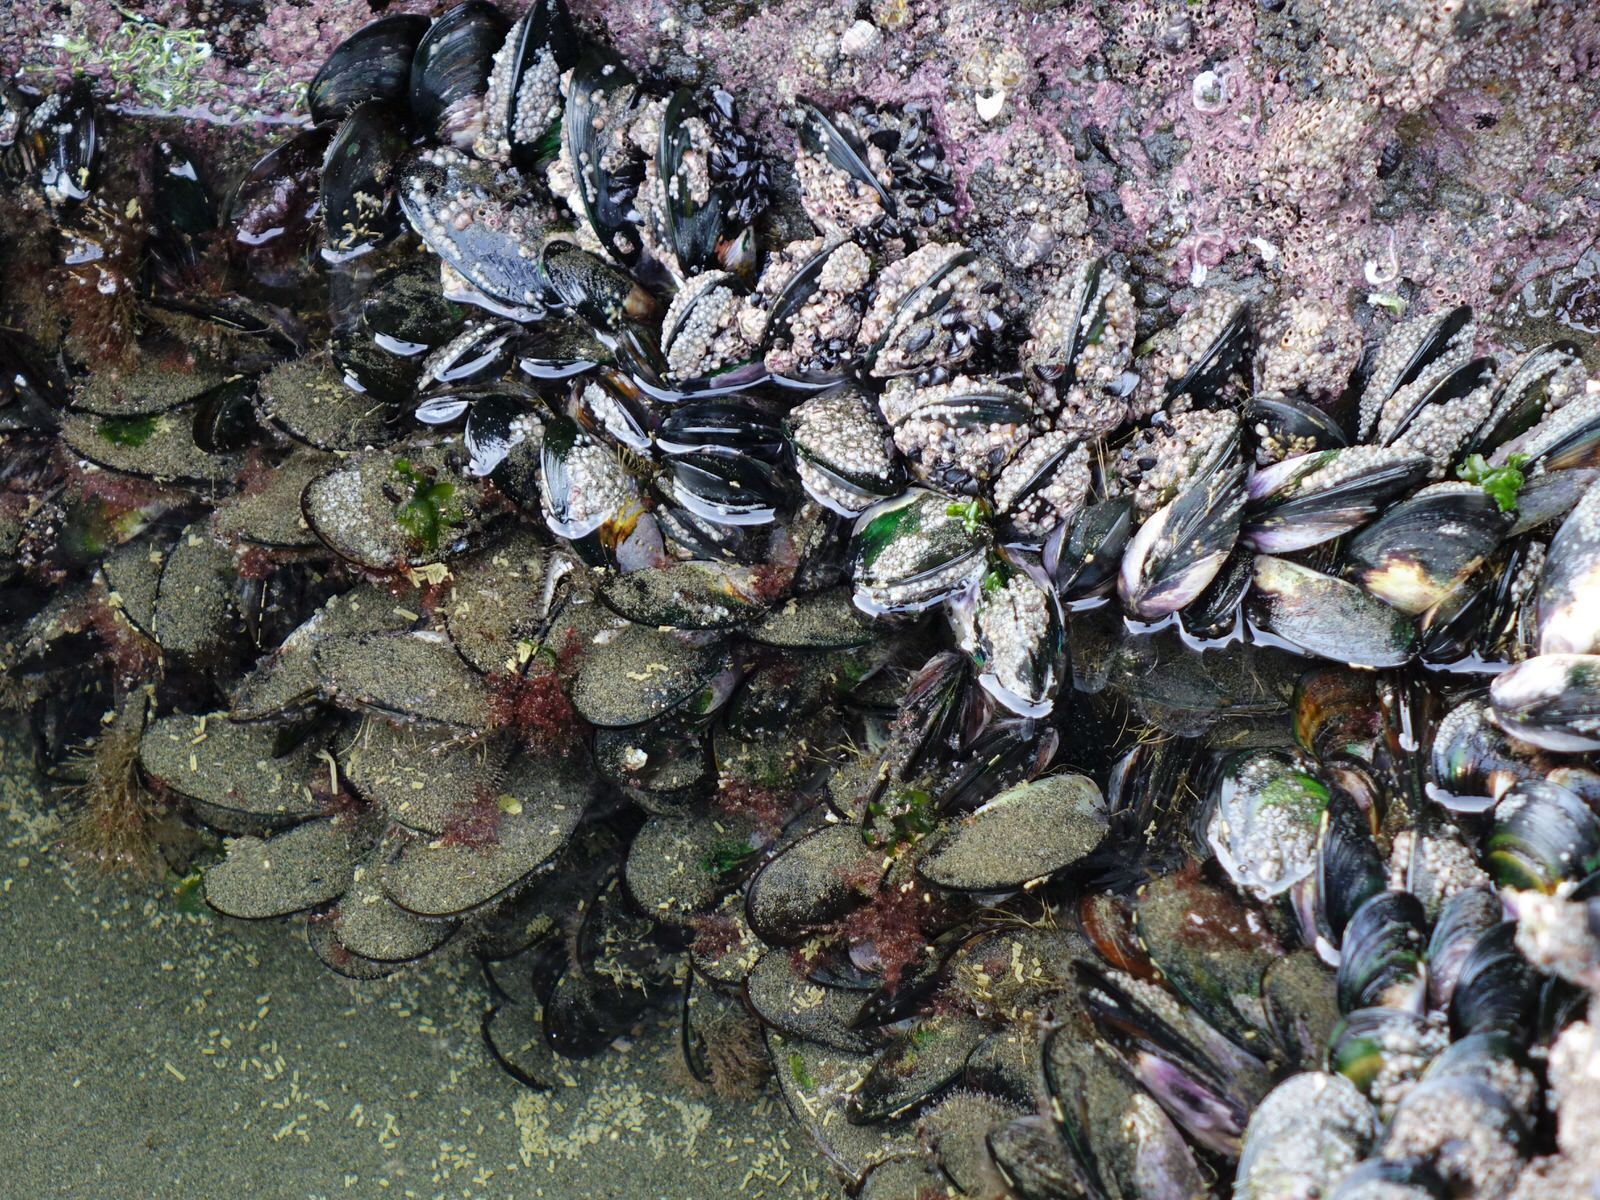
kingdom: Animalia
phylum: Mollusca
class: Bivalvia
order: Mytilida
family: Mytilidae
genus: Perna
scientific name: Perna canaliculus
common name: New zealand greenshelltm
